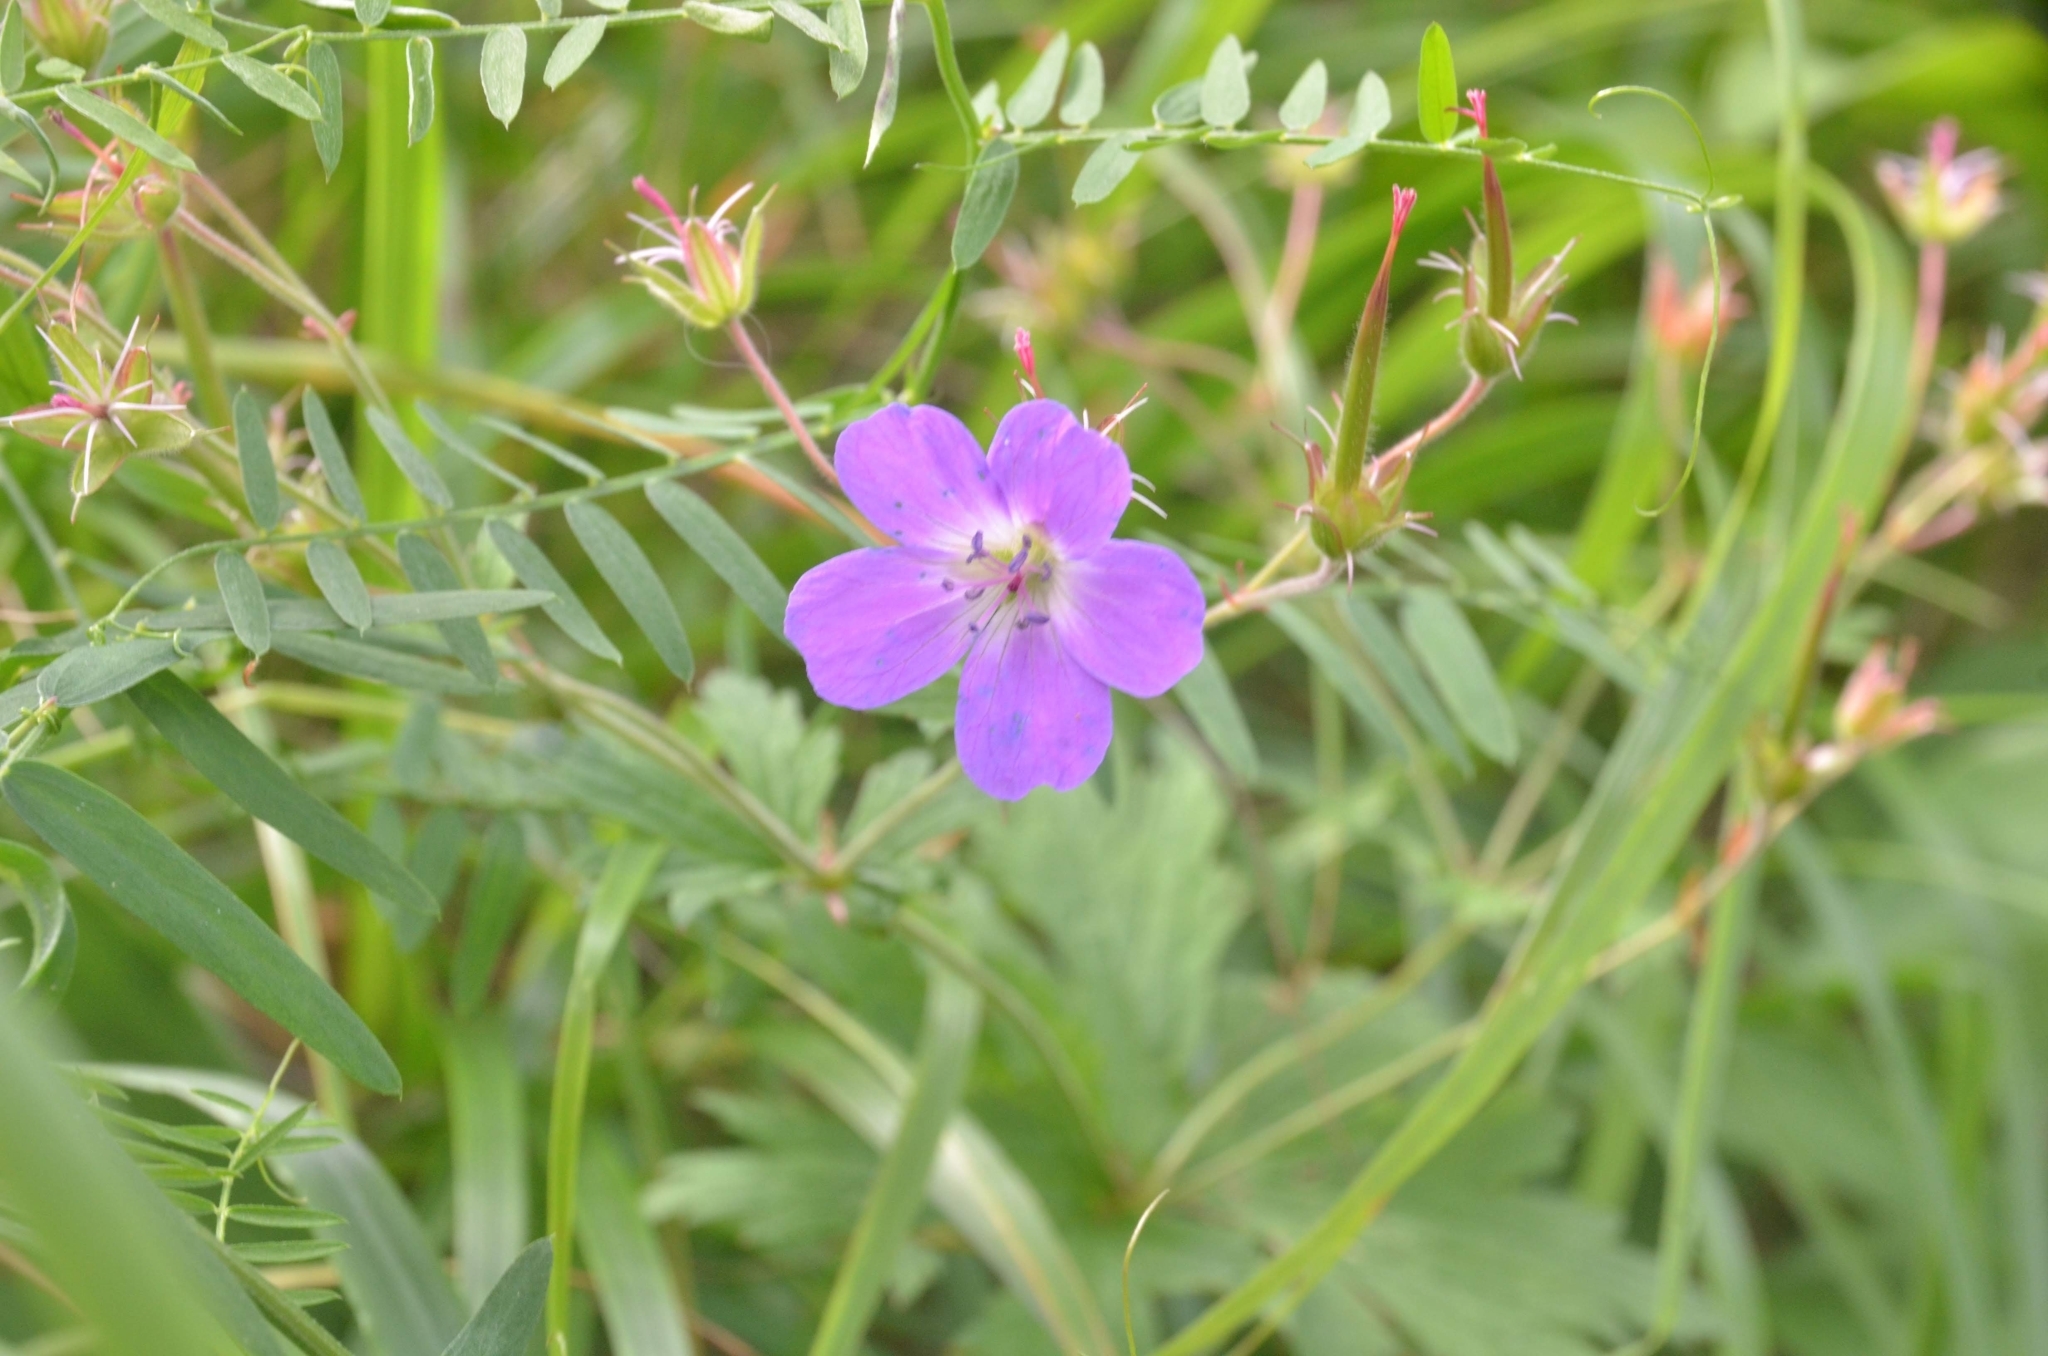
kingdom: Plantae
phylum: Tracheophyta
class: Magnoliopsida
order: Geraniales
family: Geraniaceae
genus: Geranium
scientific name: Geranium sylvaticum
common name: Wood crane's-bill
